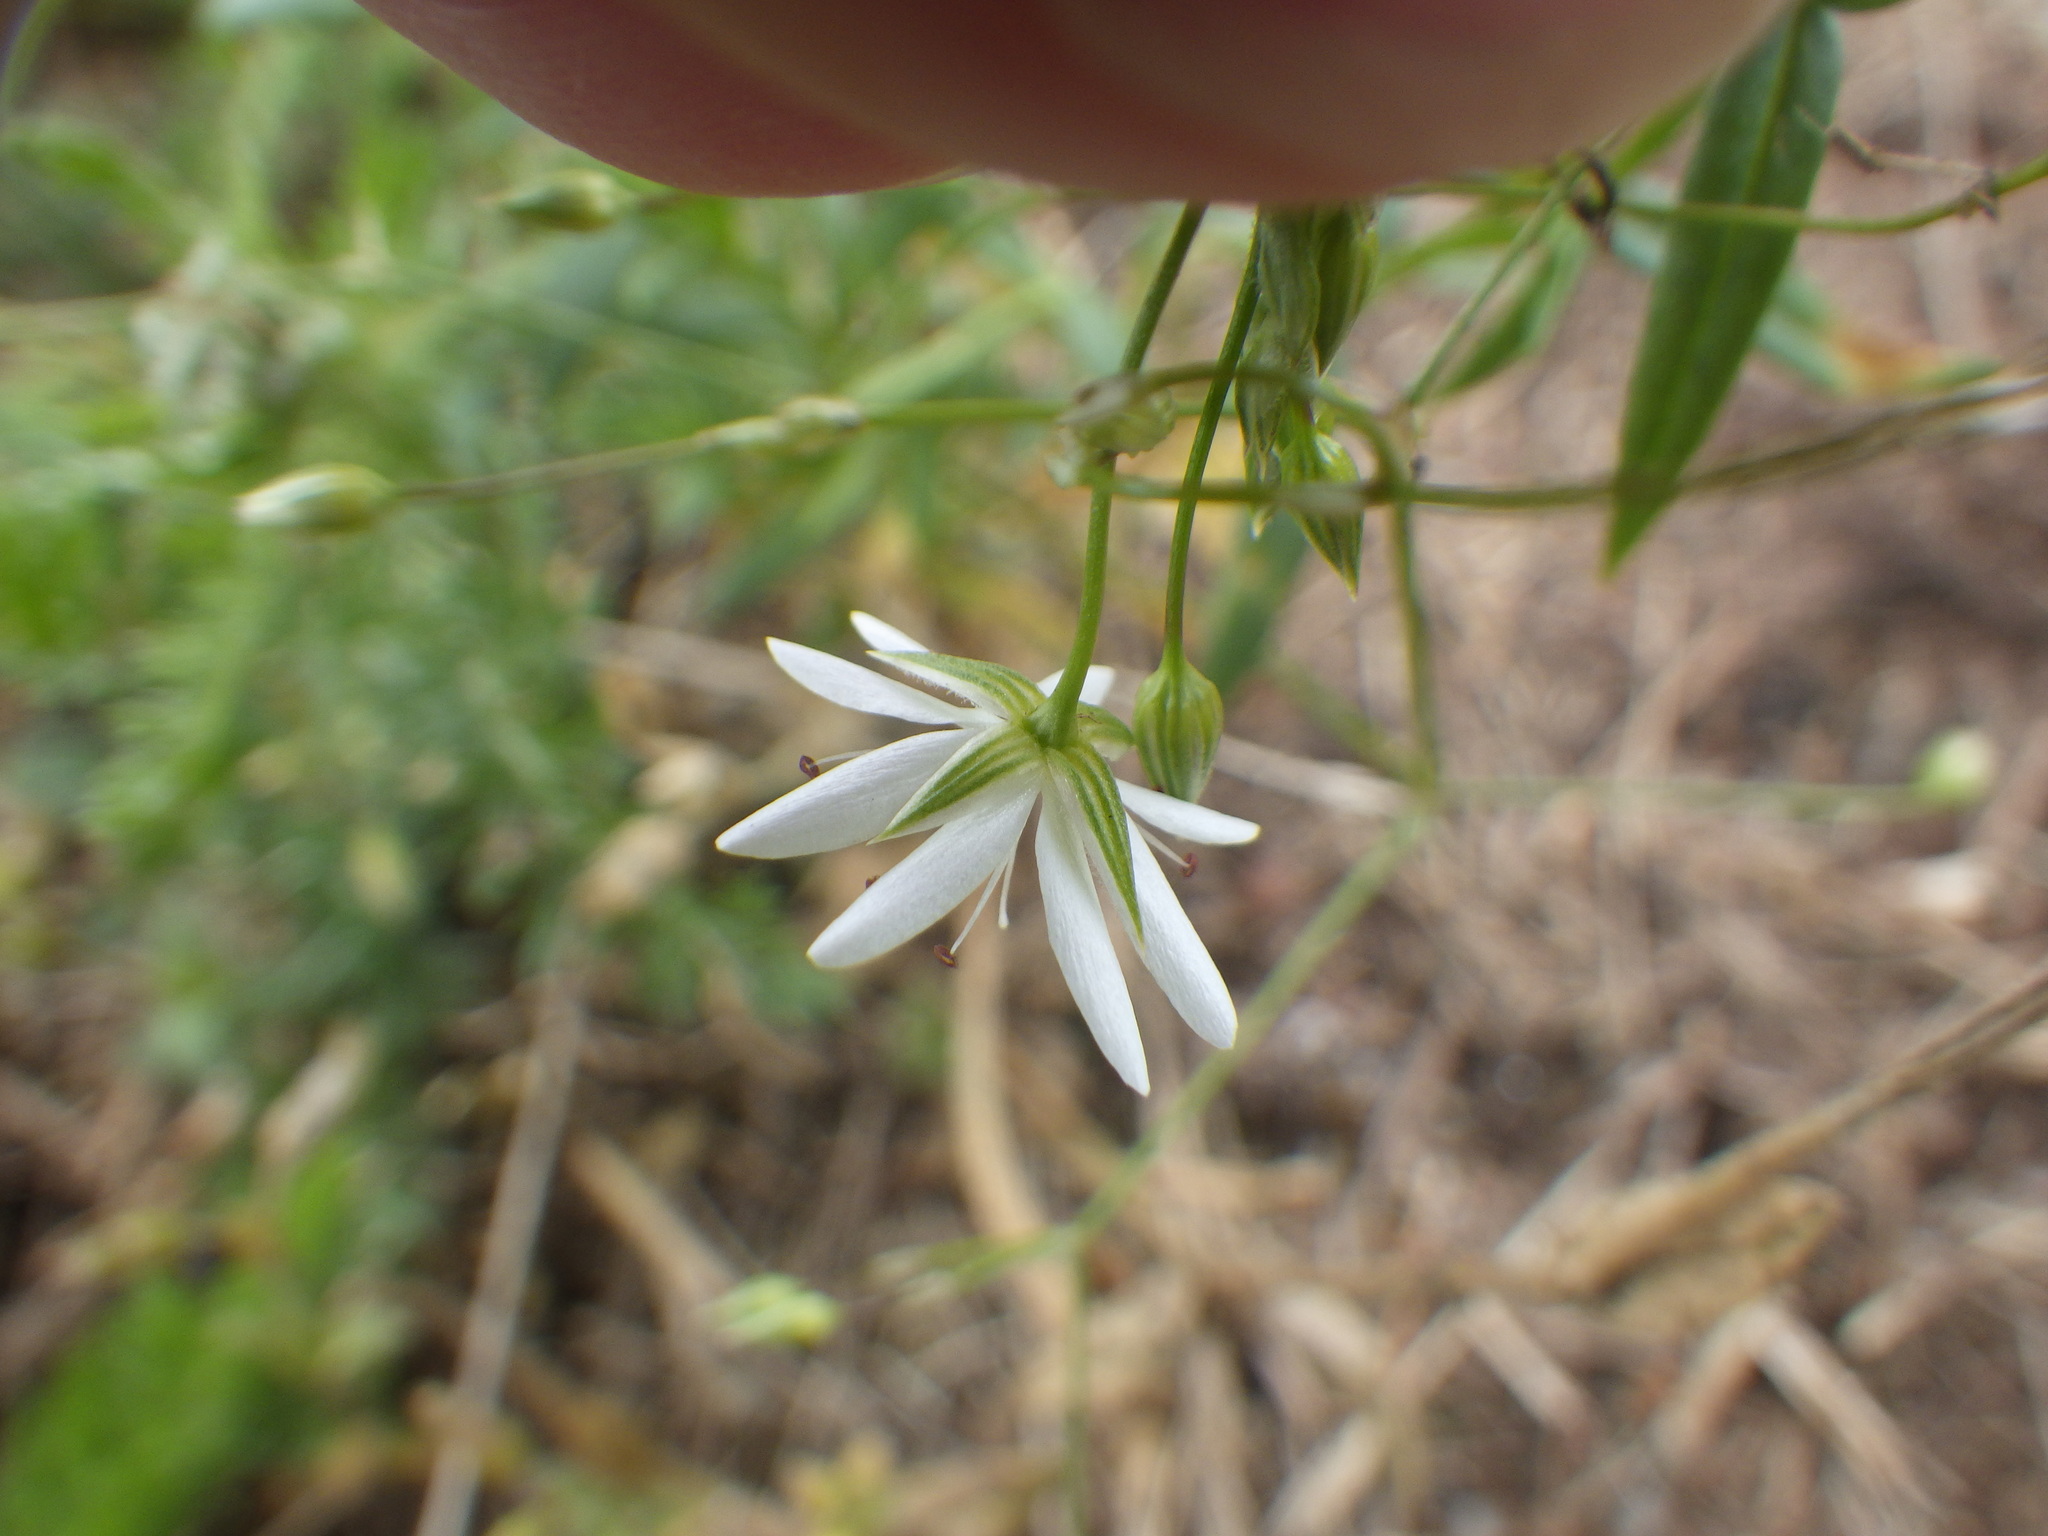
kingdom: Plantae
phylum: Tracheophyta
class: Magnoliopsida
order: Caryophyllales
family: Caryophyllaceae
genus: Stellaria
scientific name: Stellaria graminea
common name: Grass-like starwort
